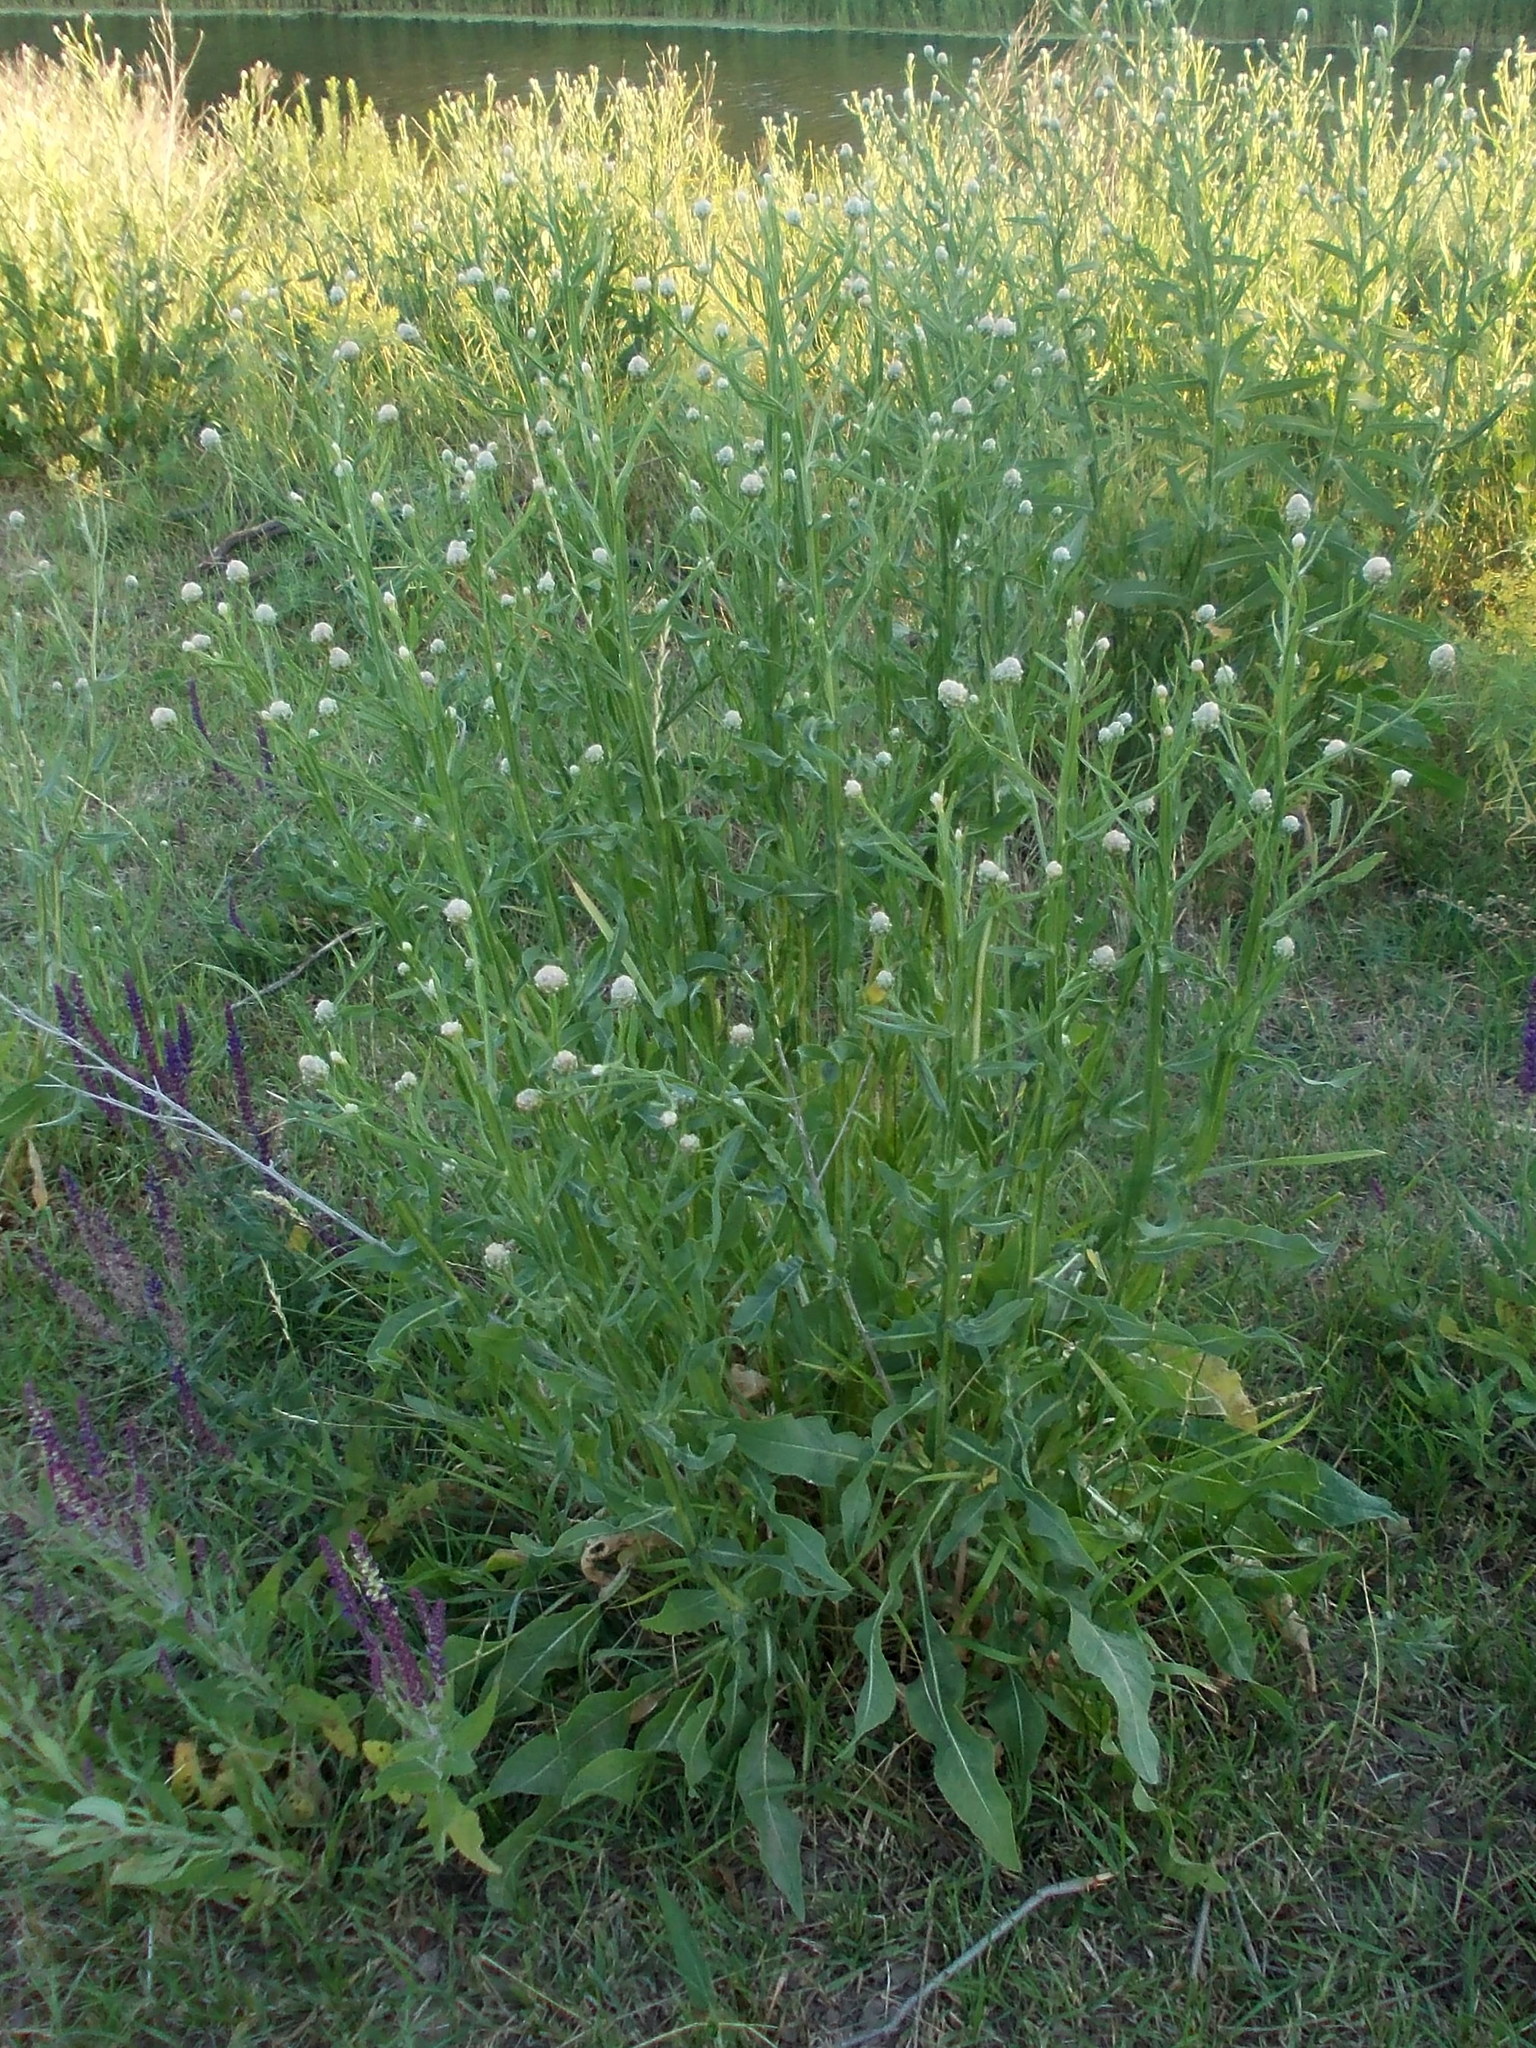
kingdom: Plantae
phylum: Tracheophyta
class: Magnoliopsida
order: Asterales
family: Asteraceae
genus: Centaurea
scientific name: Centaurea glastifolia
